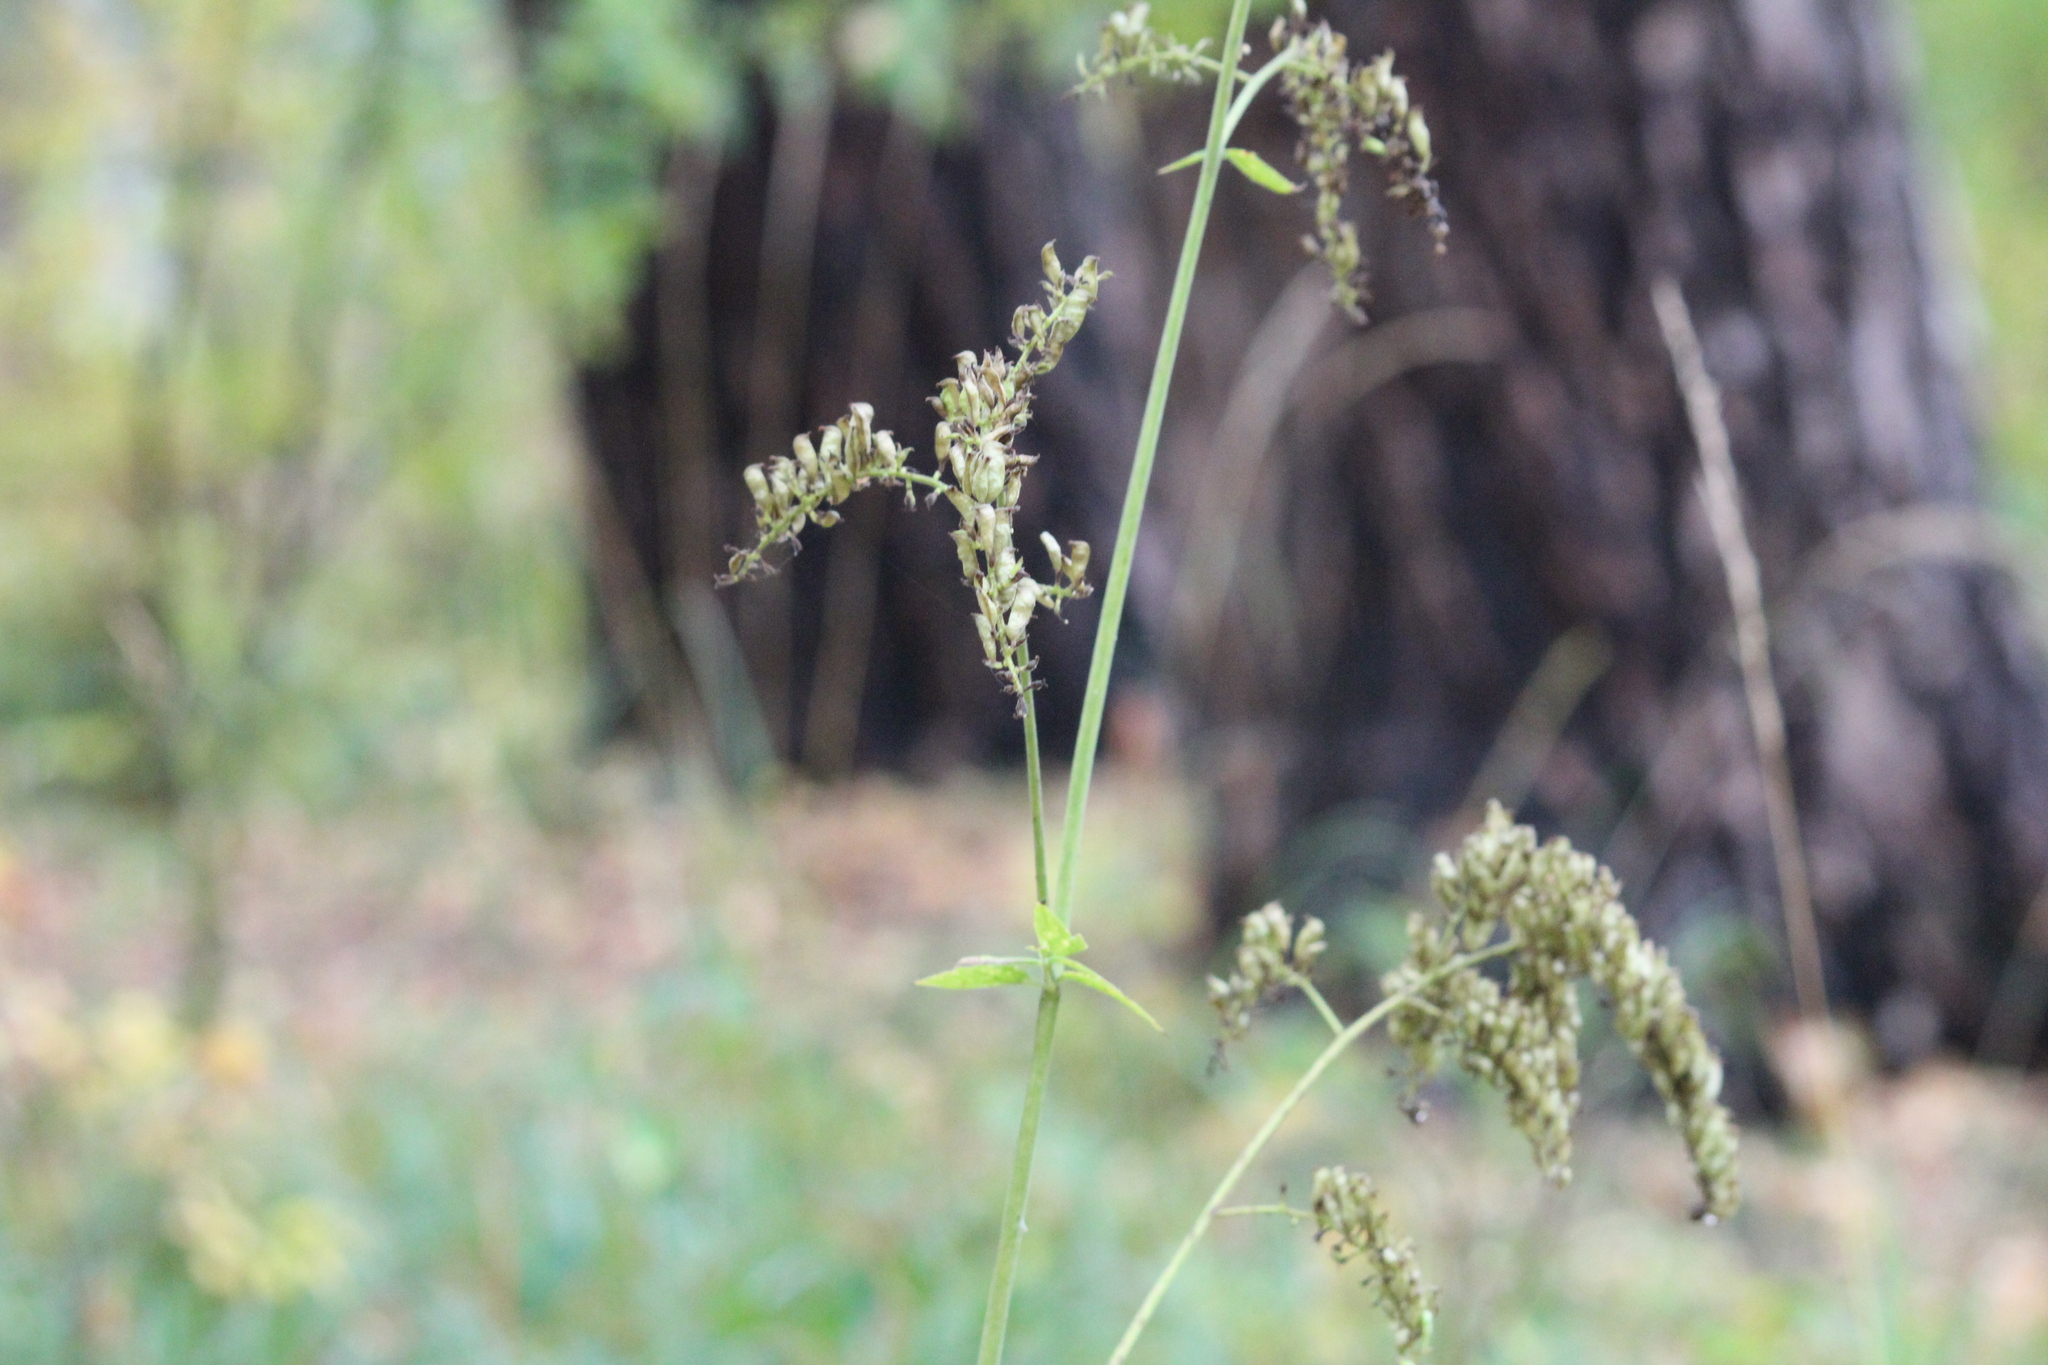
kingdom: Plantae
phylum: Tracheophyta
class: Magnoliopsida
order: Ranunculales
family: Ranunculaceae
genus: Actaea
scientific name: Actaea cimicifuga
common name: Chinese cimicifuga
